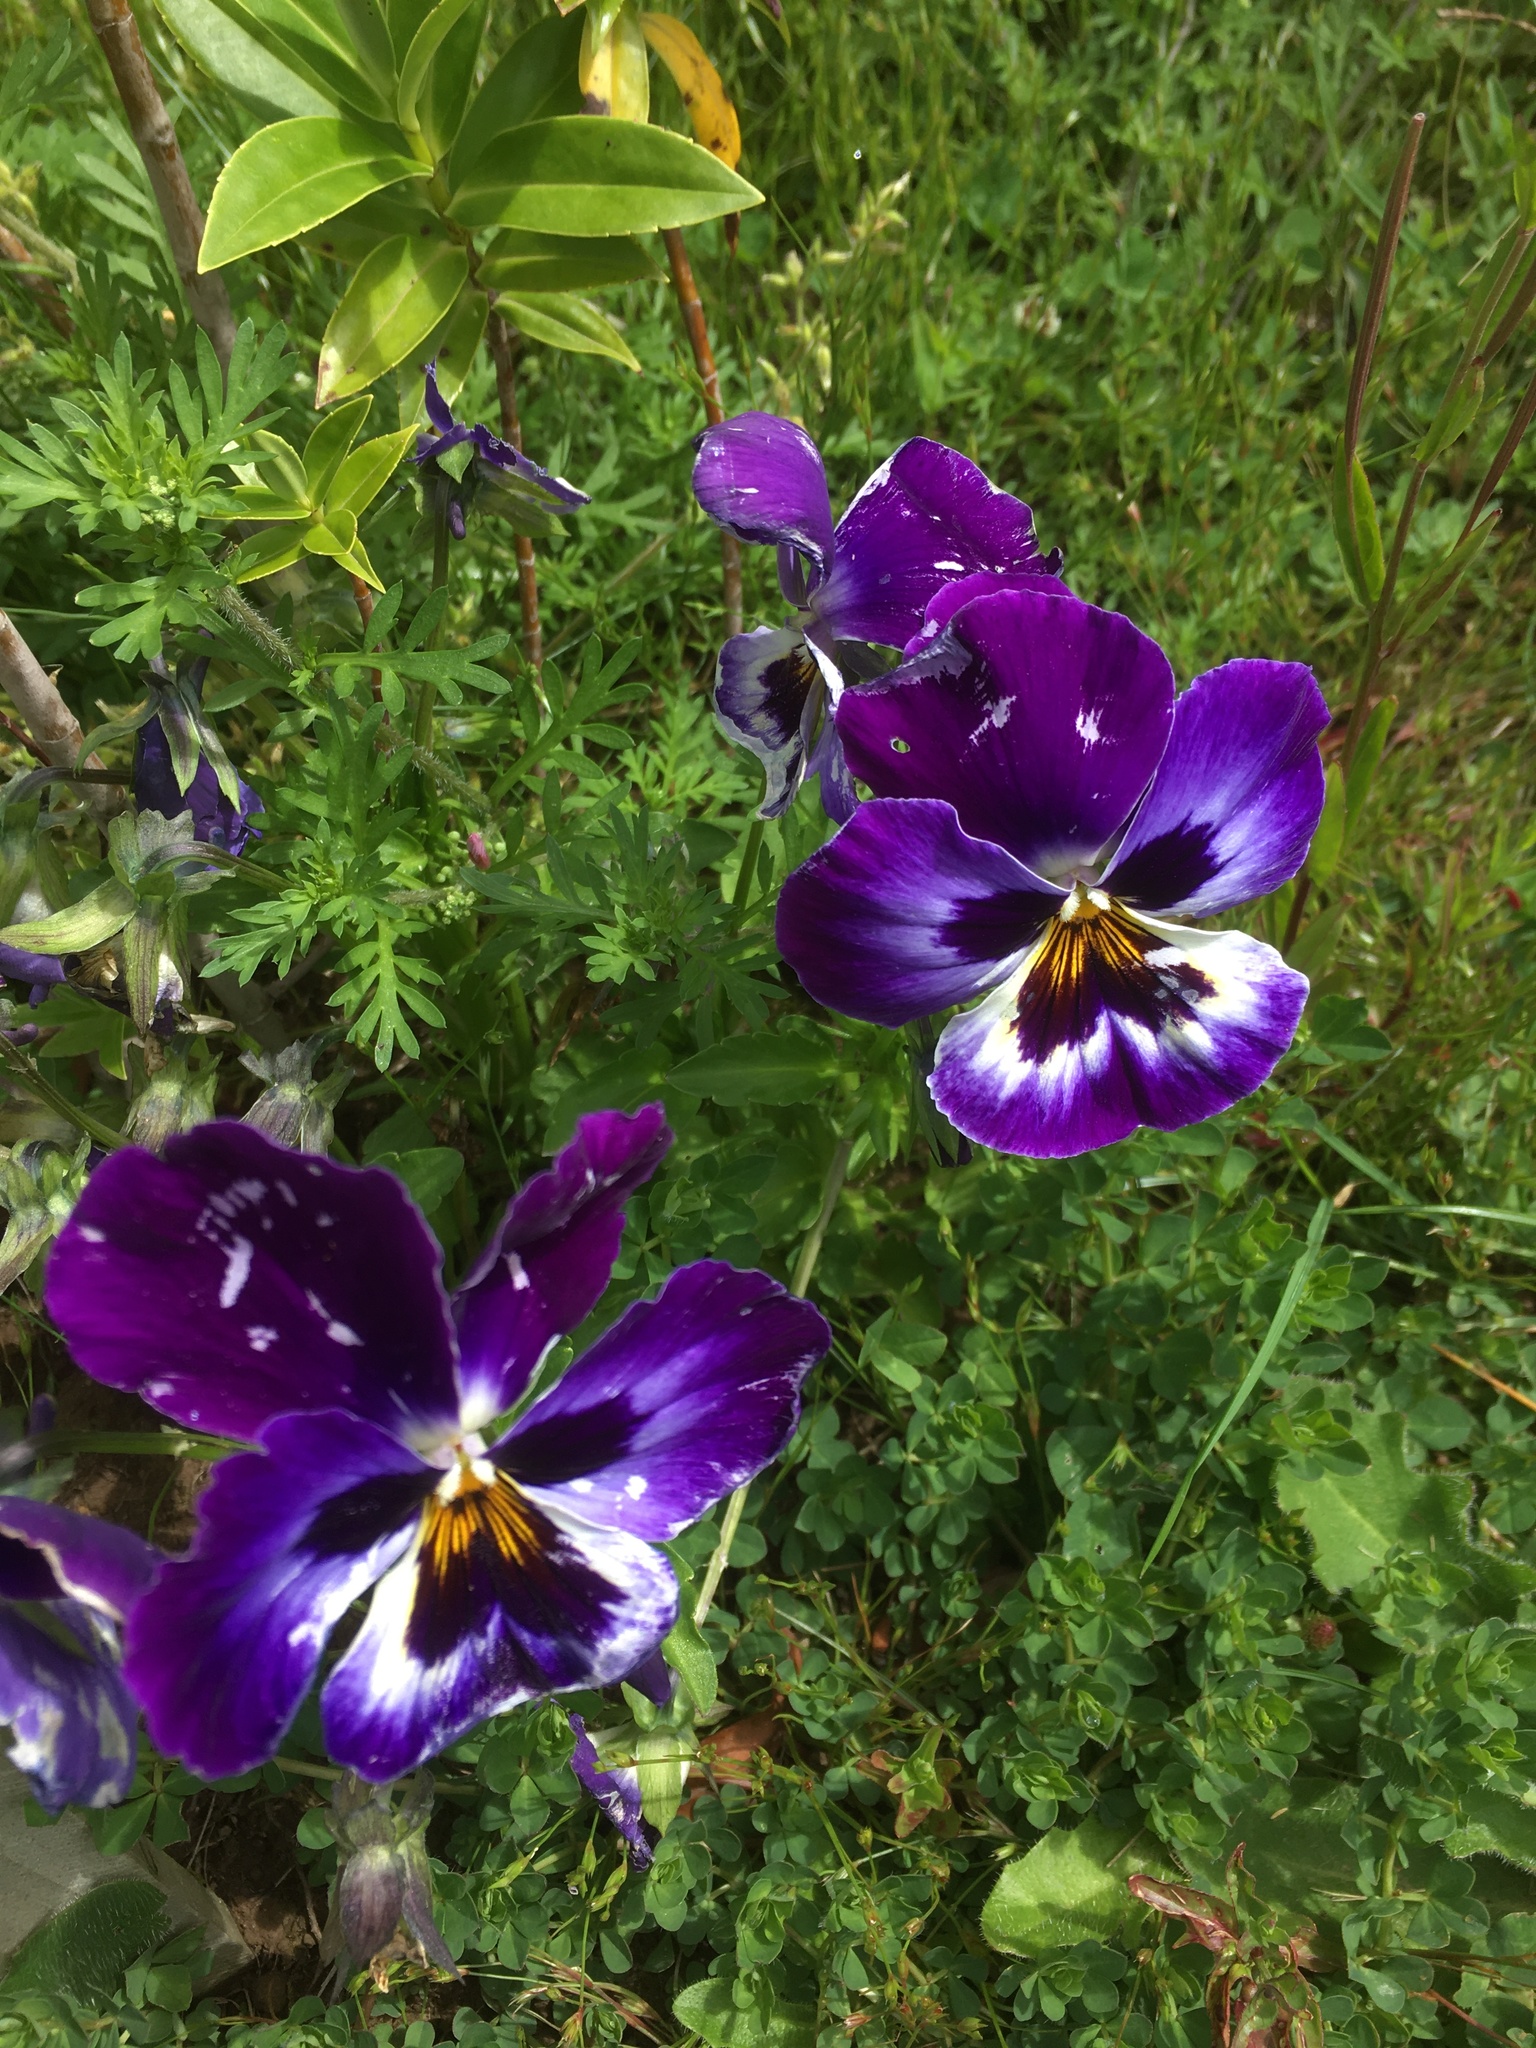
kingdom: Plantae
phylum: Tracheophyta
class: Magnoliopsida
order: Malpighiales
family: Violaceae
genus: Viola
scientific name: Viola wittrockiana
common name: Garden pansy
